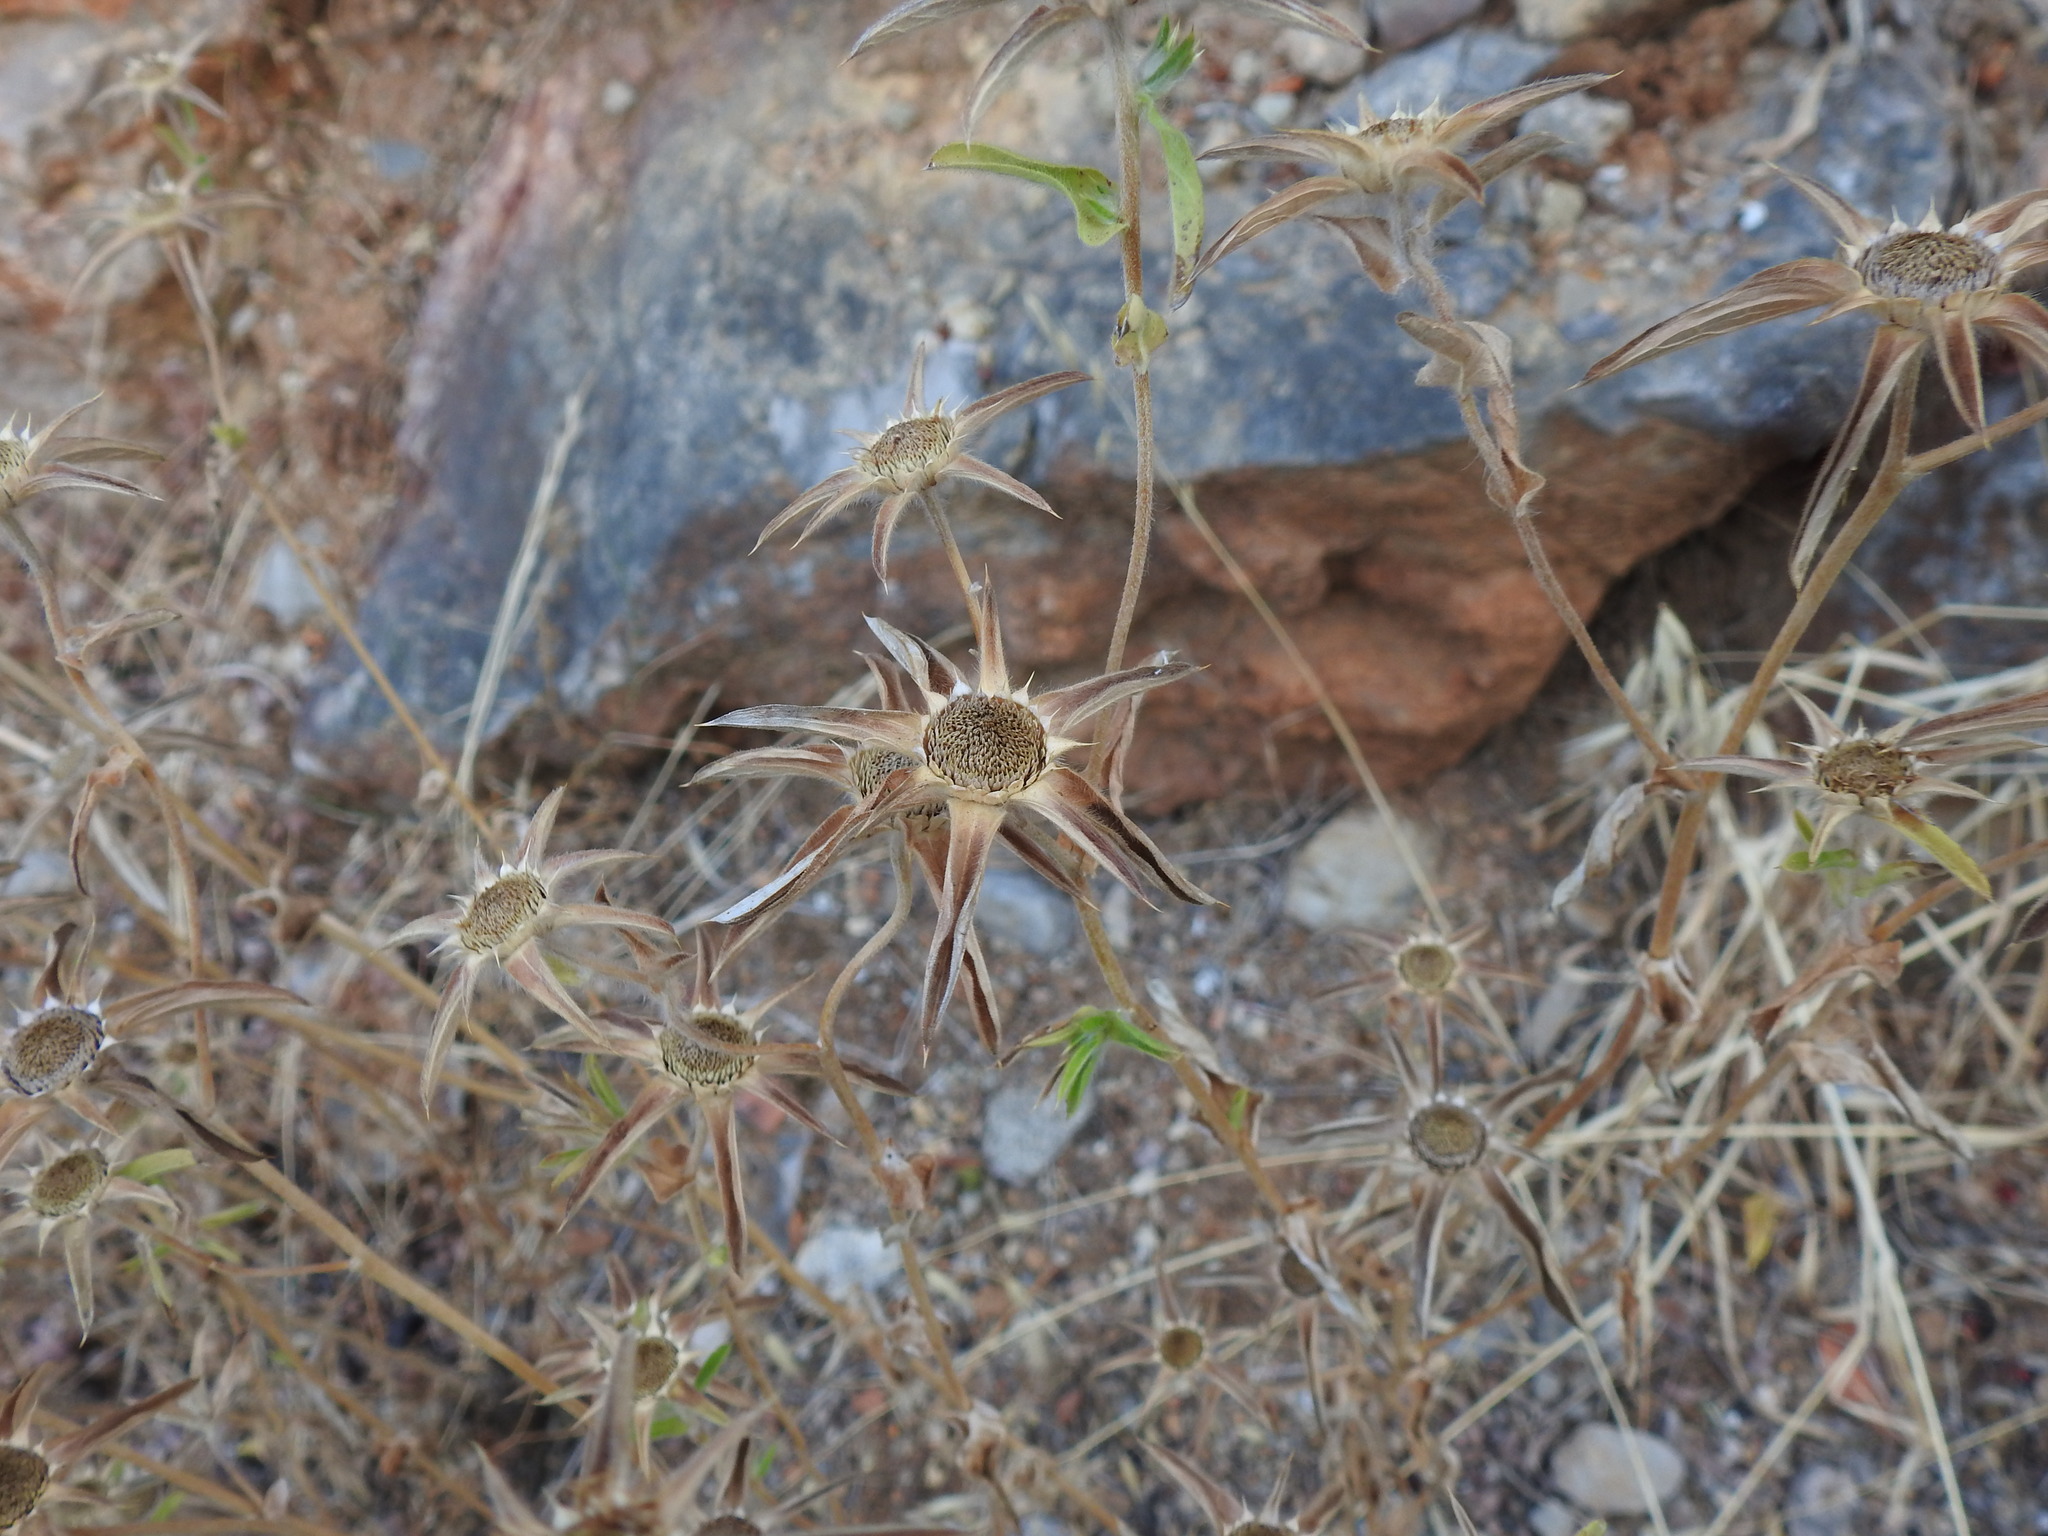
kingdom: Plantae
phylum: Tracheophyta
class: Magnoliopsida
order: Asterales
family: Asteraceae
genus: Pallenis
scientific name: Pallenis spinosa
